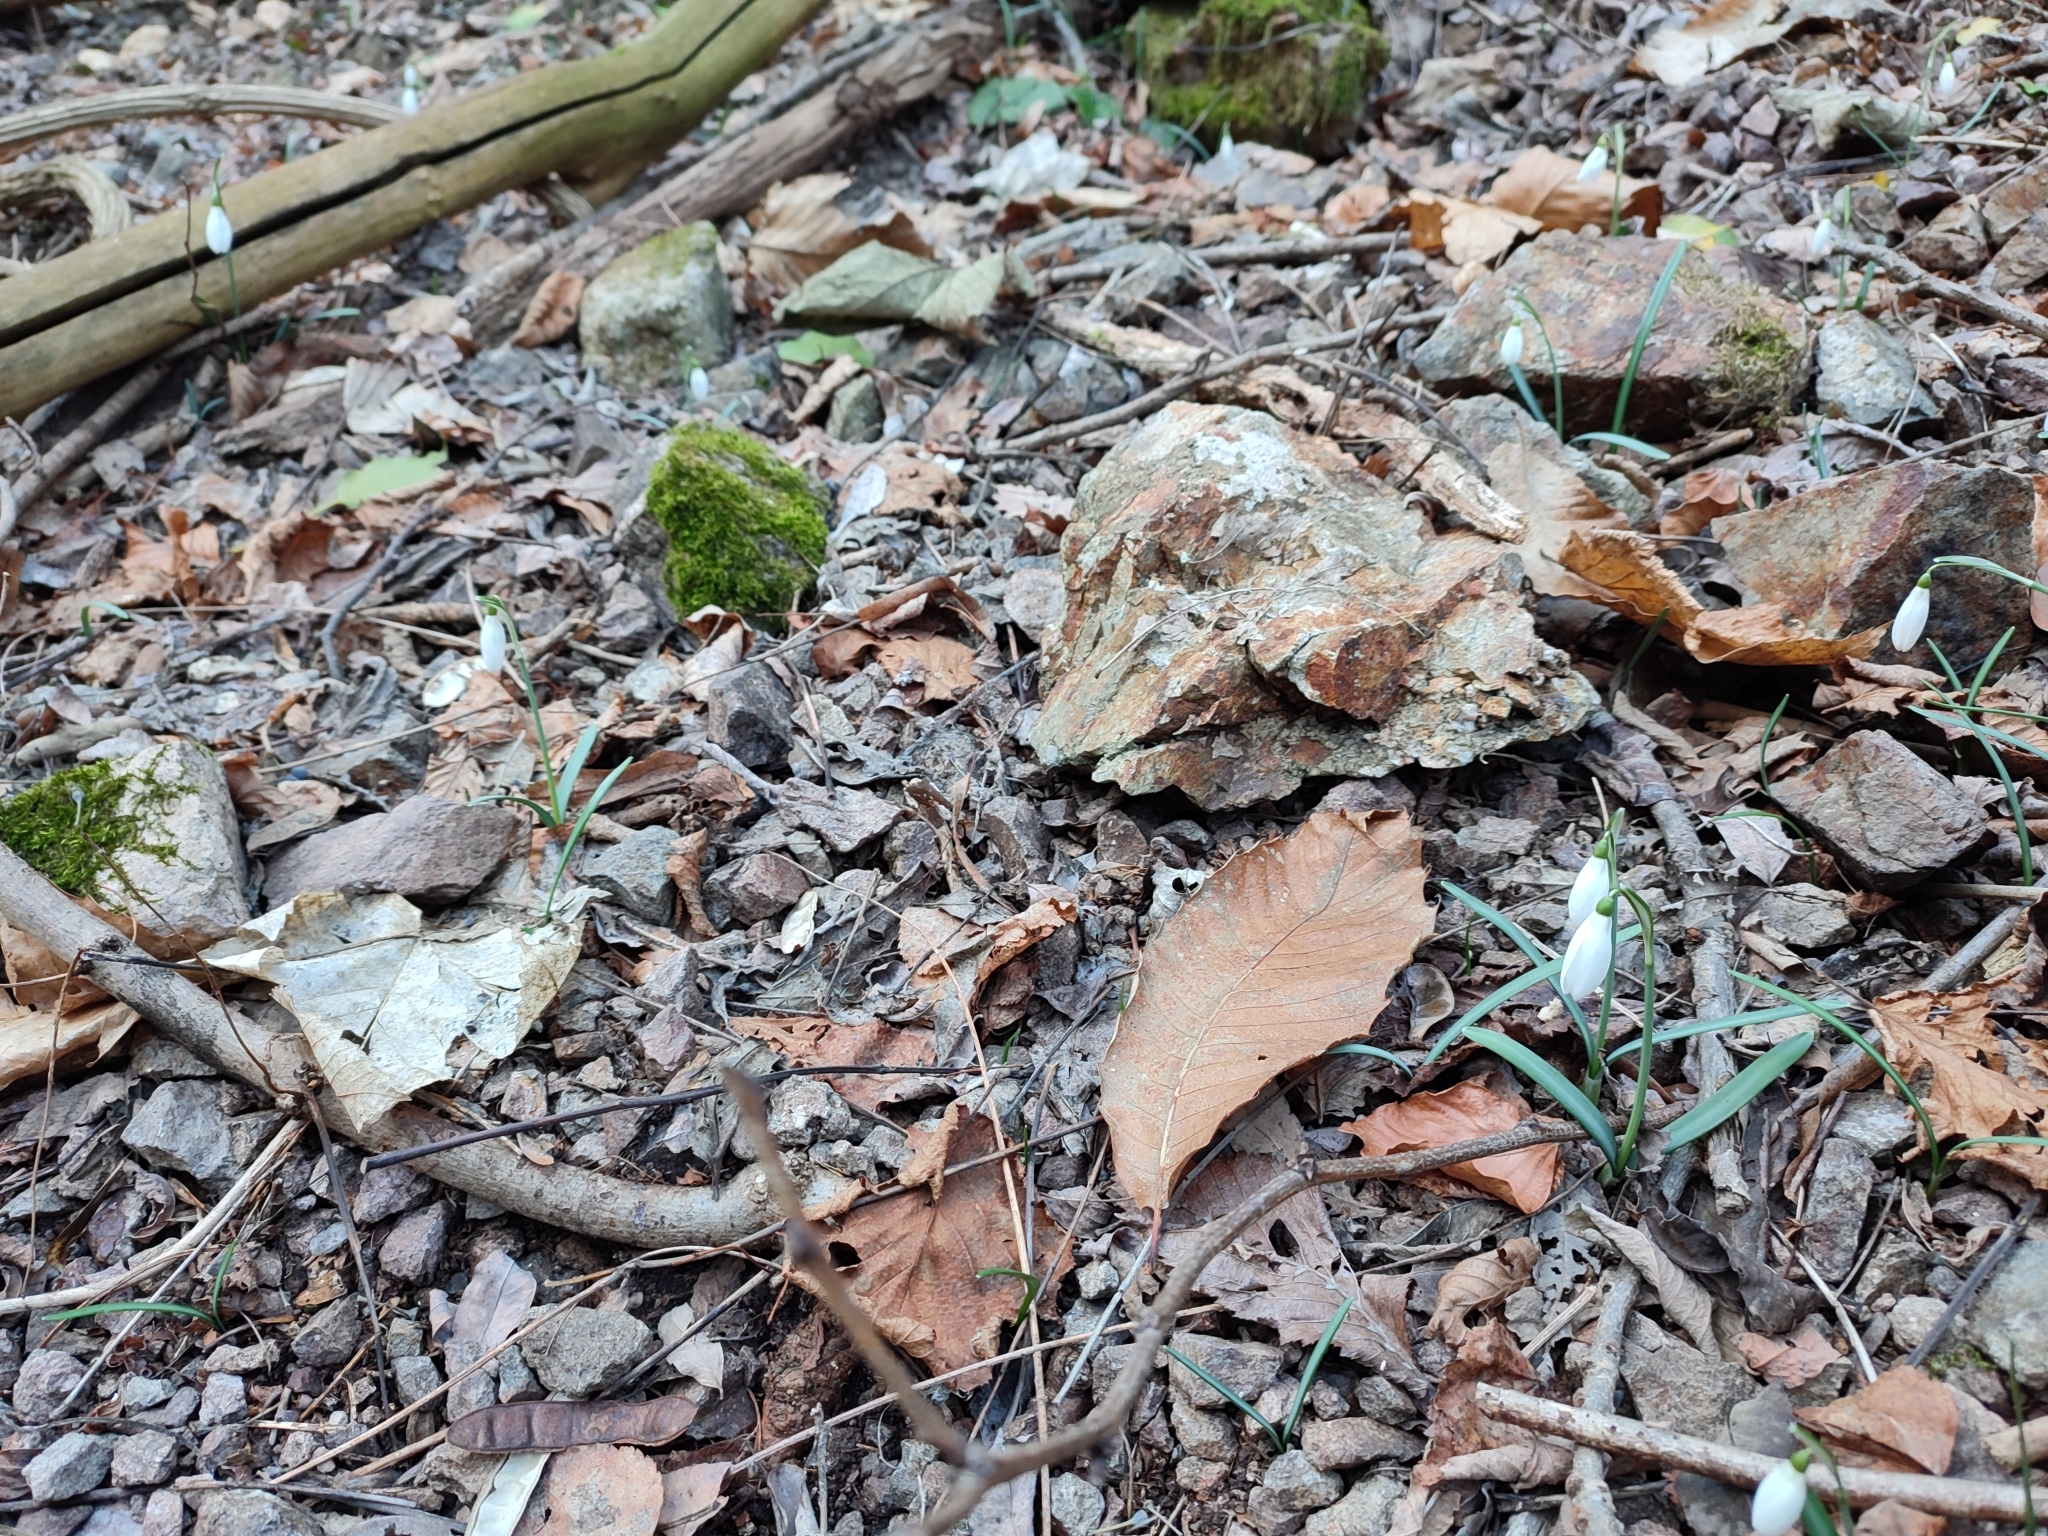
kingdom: Plantae
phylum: Tracheophyta
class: Liliopsida
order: Asparagales
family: Amaryllidaceae
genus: Galanthus
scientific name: Galanthus nivalis
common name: Snowdrop
